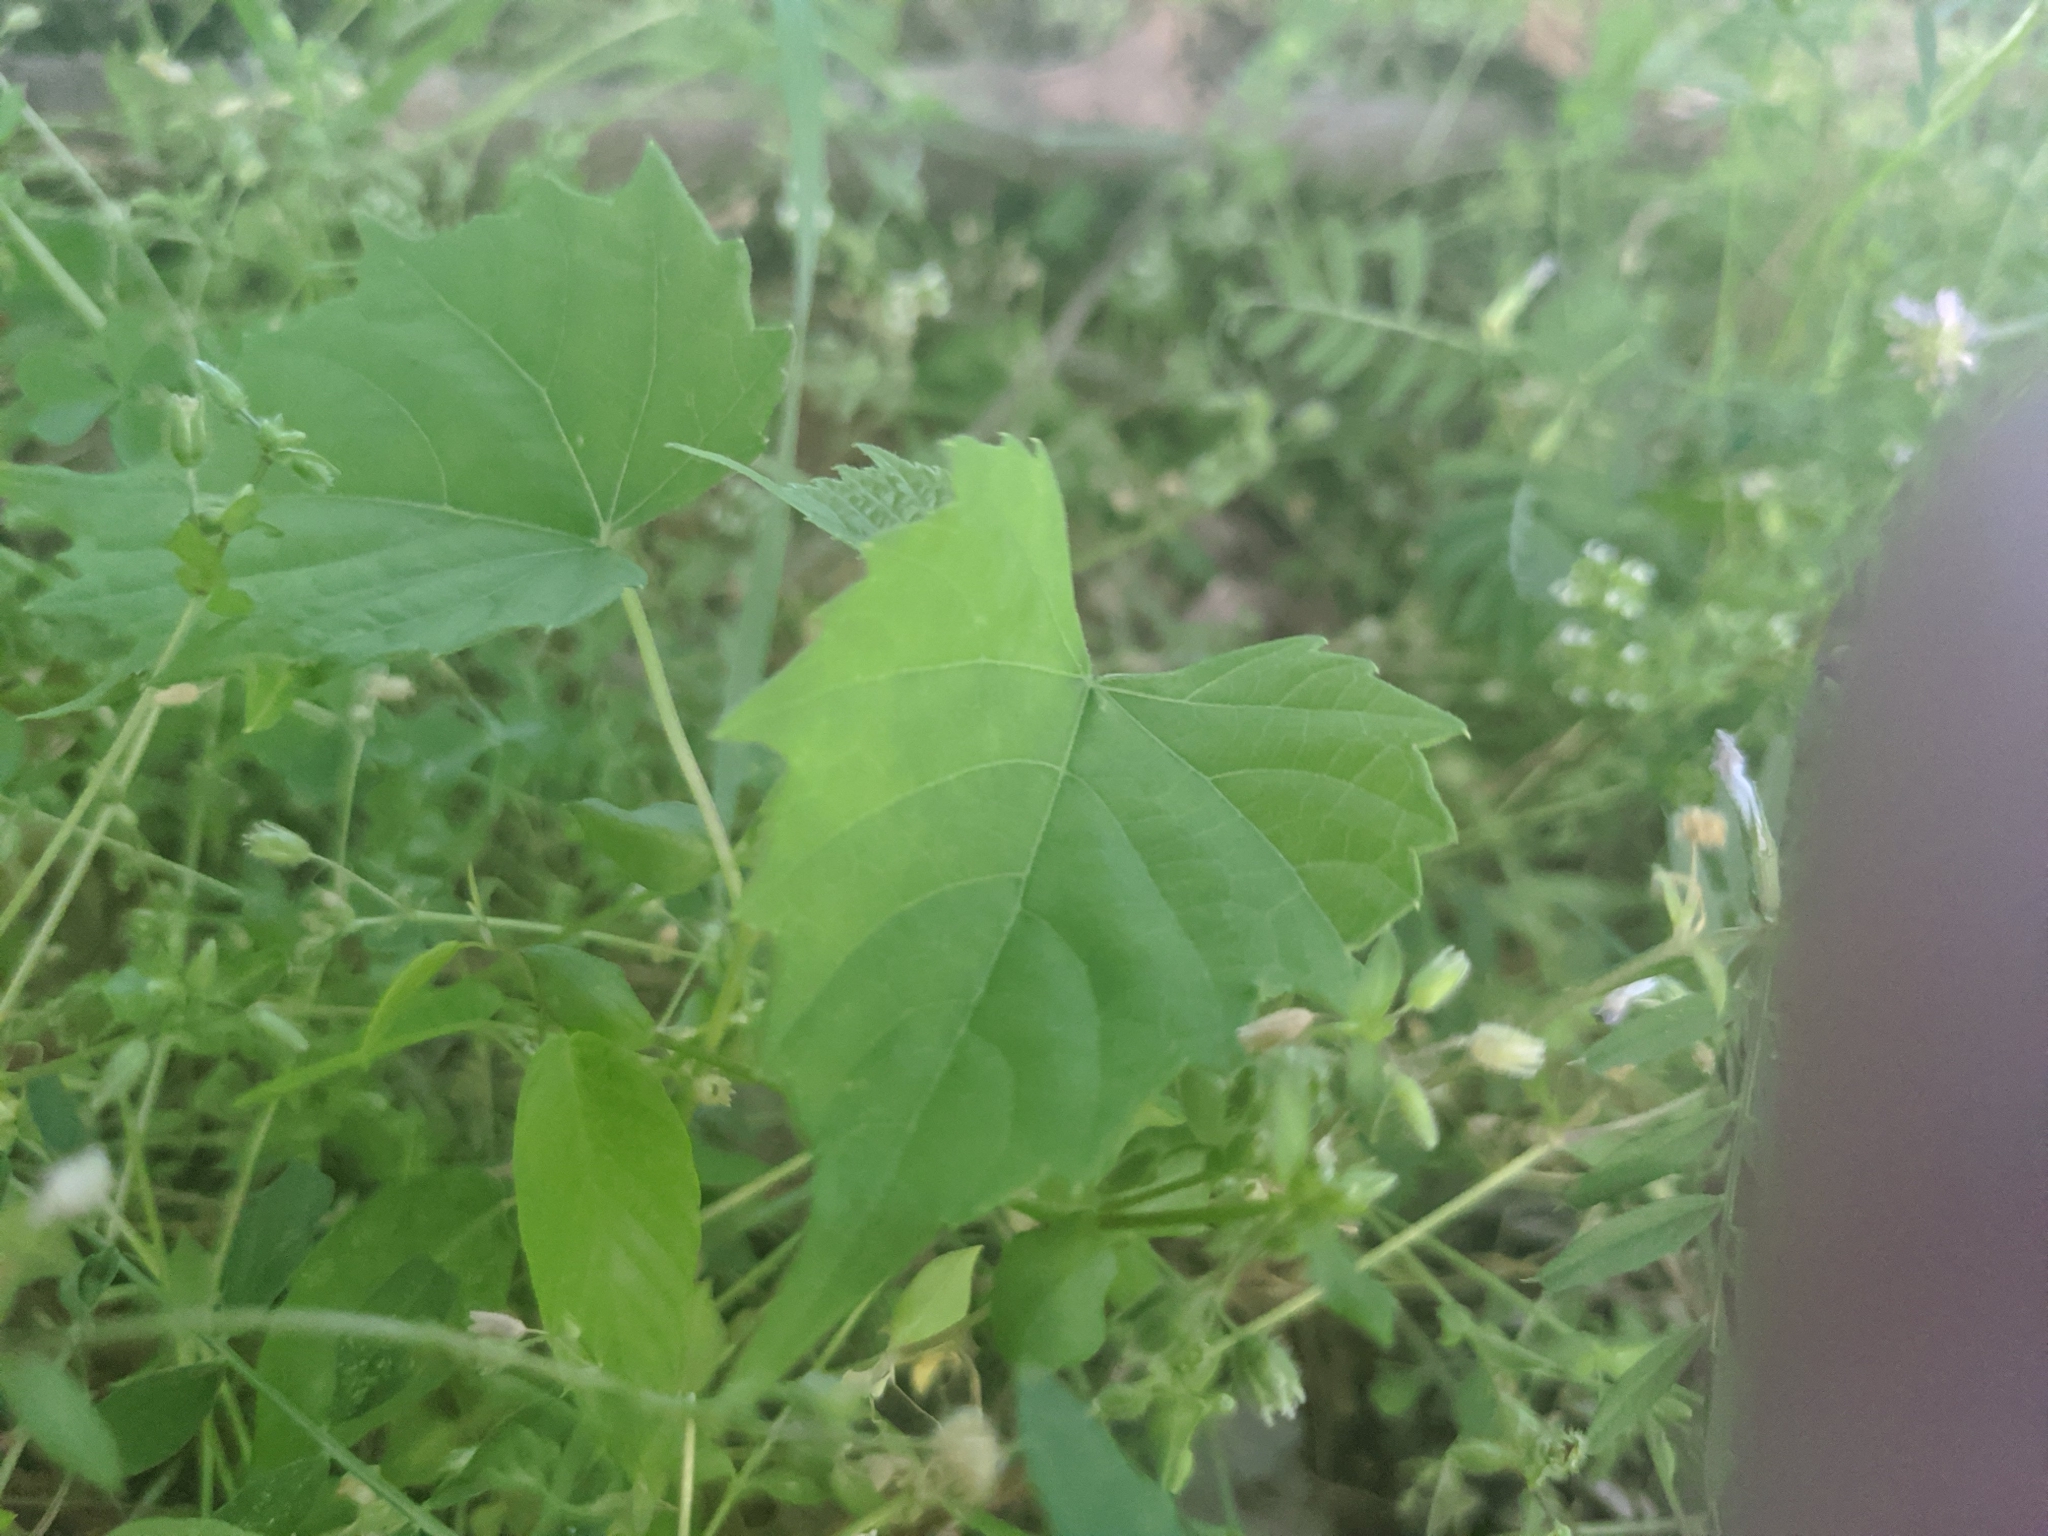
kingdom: Plantae
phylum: Tracheophyta
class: Magnoliopsida
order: Vitales
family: Vitaceae
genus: Ampelopsis
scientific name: Ampelopsis cordata
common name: Heart-leaf ampelopsis
